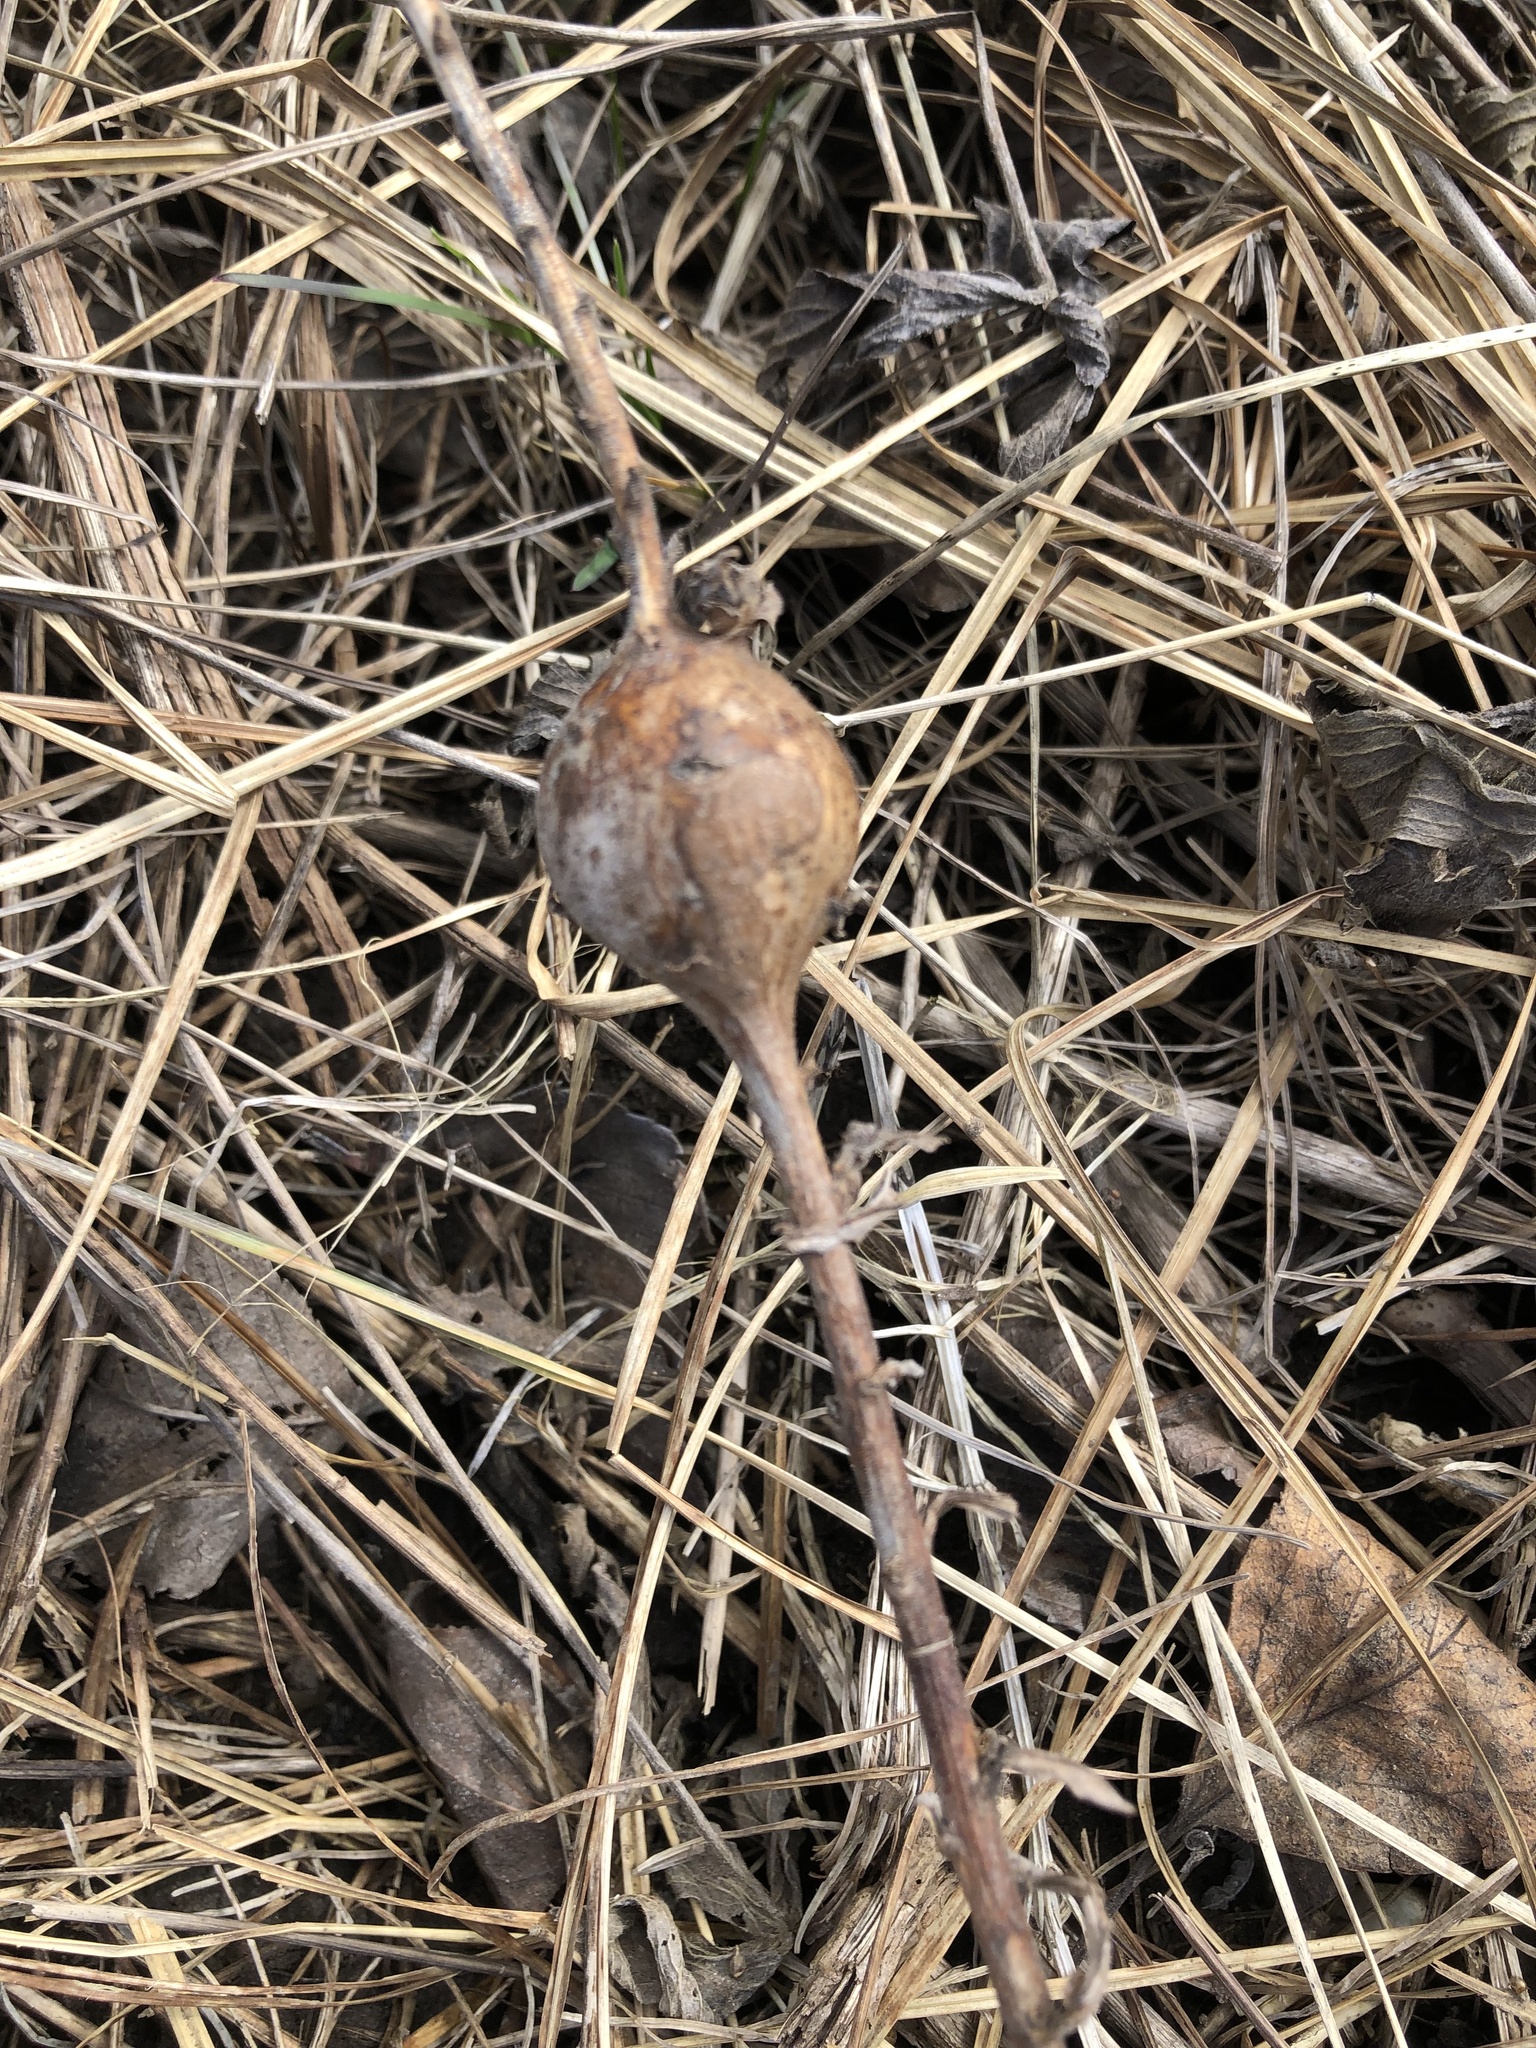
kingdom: Animalia
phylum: Arthropoda
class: Insecta
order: Diptera
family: Tephritidae
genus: Eurosta
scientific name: Eurosta solidaginis
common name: Goldenrod gall fly
